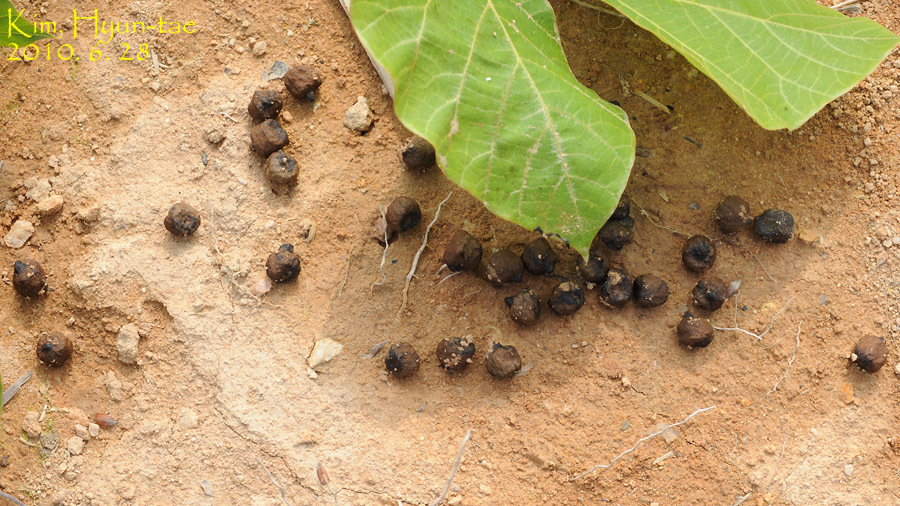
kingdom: Animalia
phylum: Chordata
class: Mammalia
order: Artiodactyla
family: Cervidae
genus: Hydropotes
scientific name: Hydropotes inermis
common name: Chinese water deer
